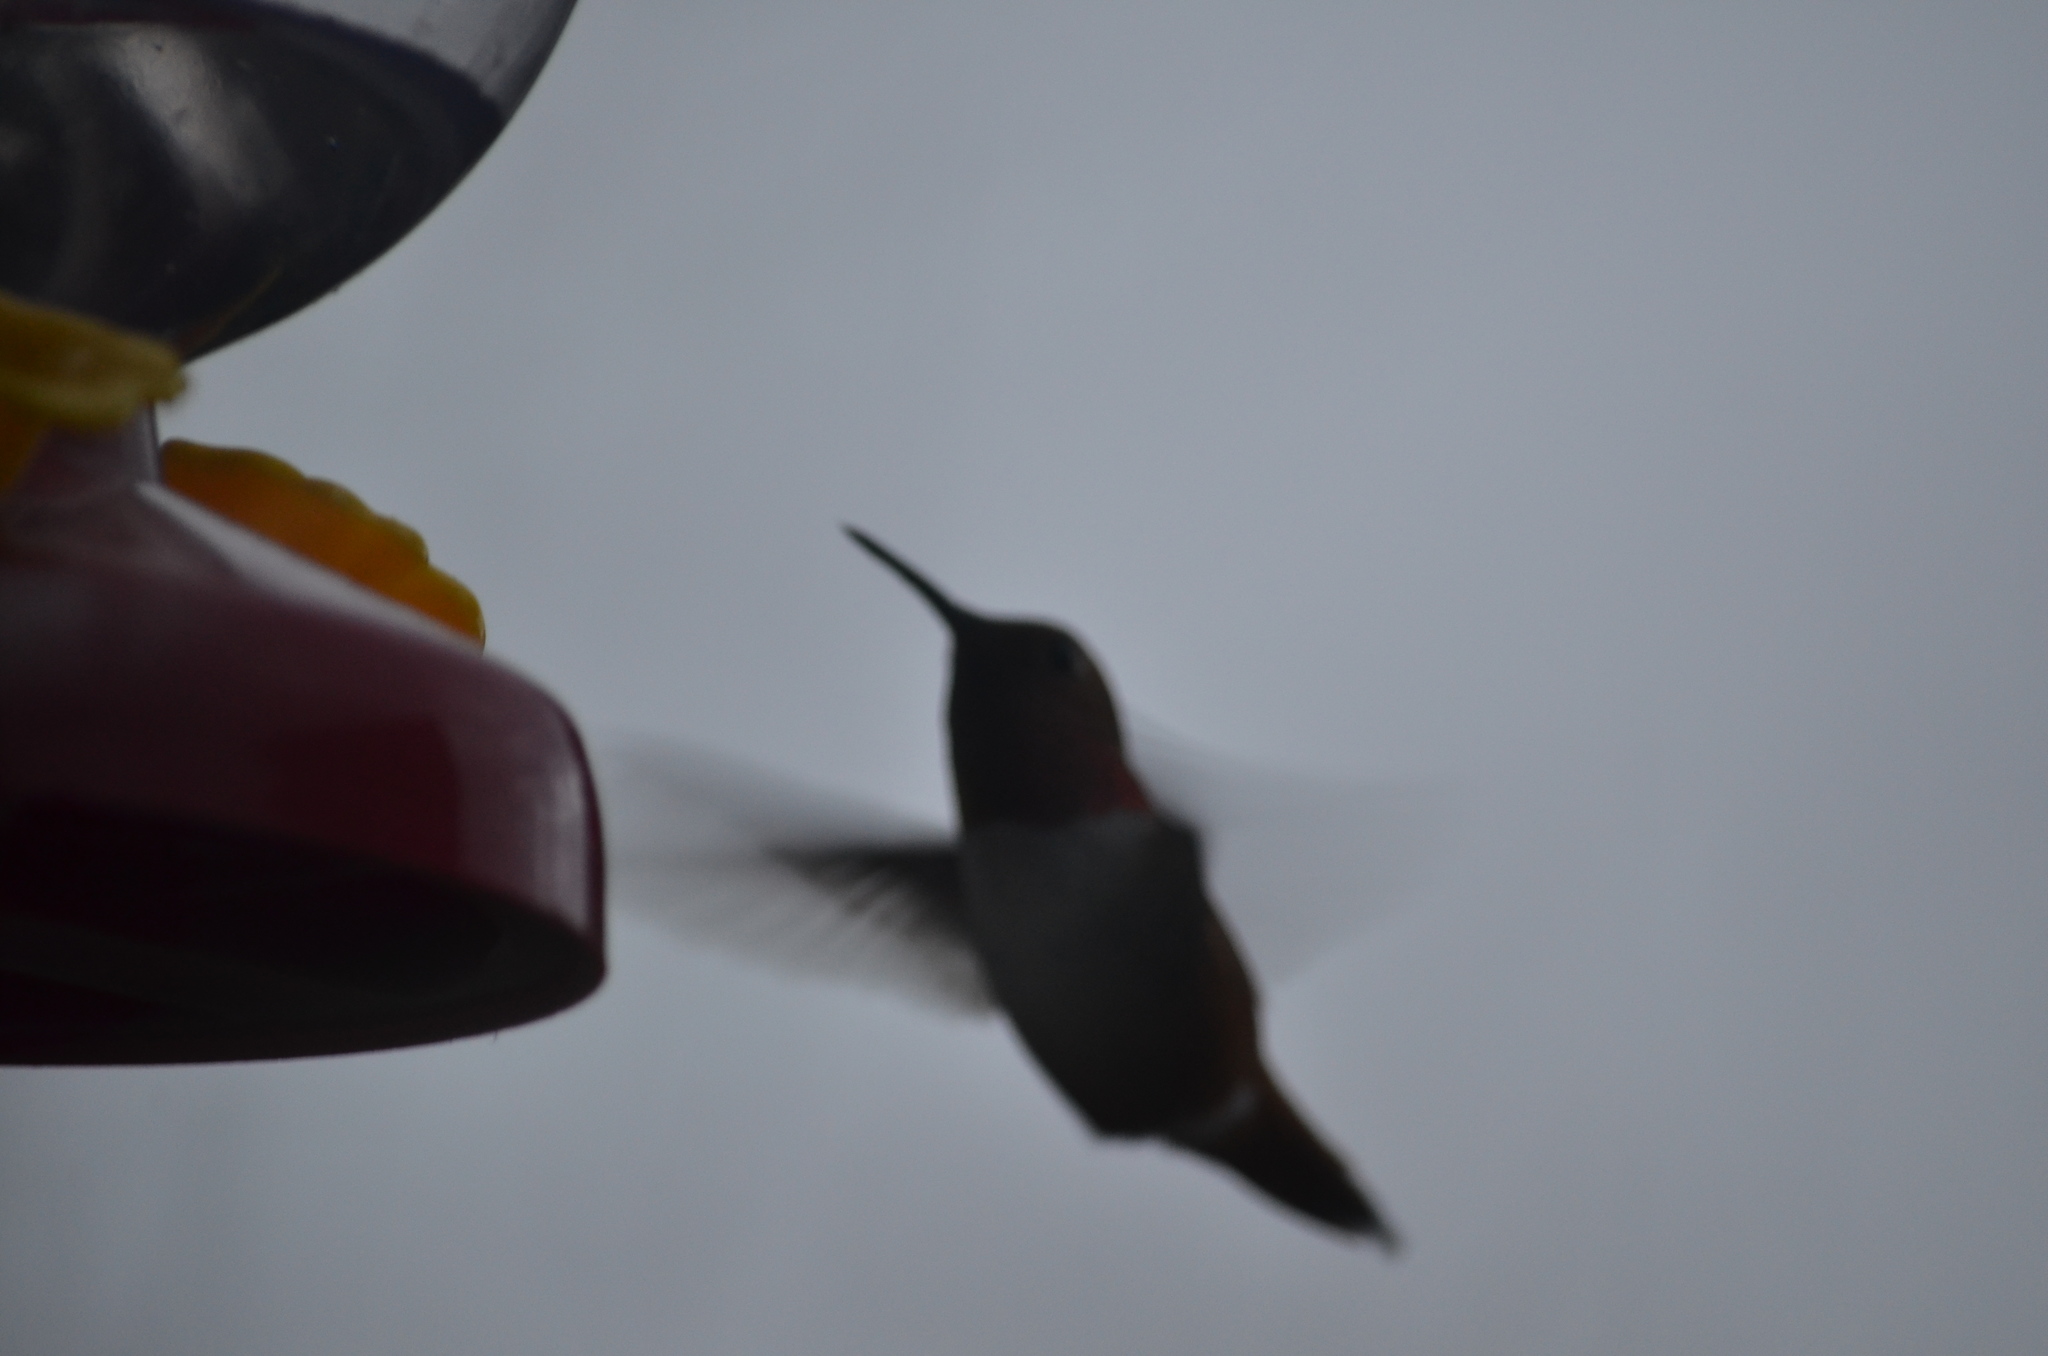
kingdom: Animalia
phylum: Chordata
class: Aves
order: Apodiformes
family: Trochilidae
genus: Selasphorus
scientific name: Selasphorus rufus
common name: Rufous hummingbird
